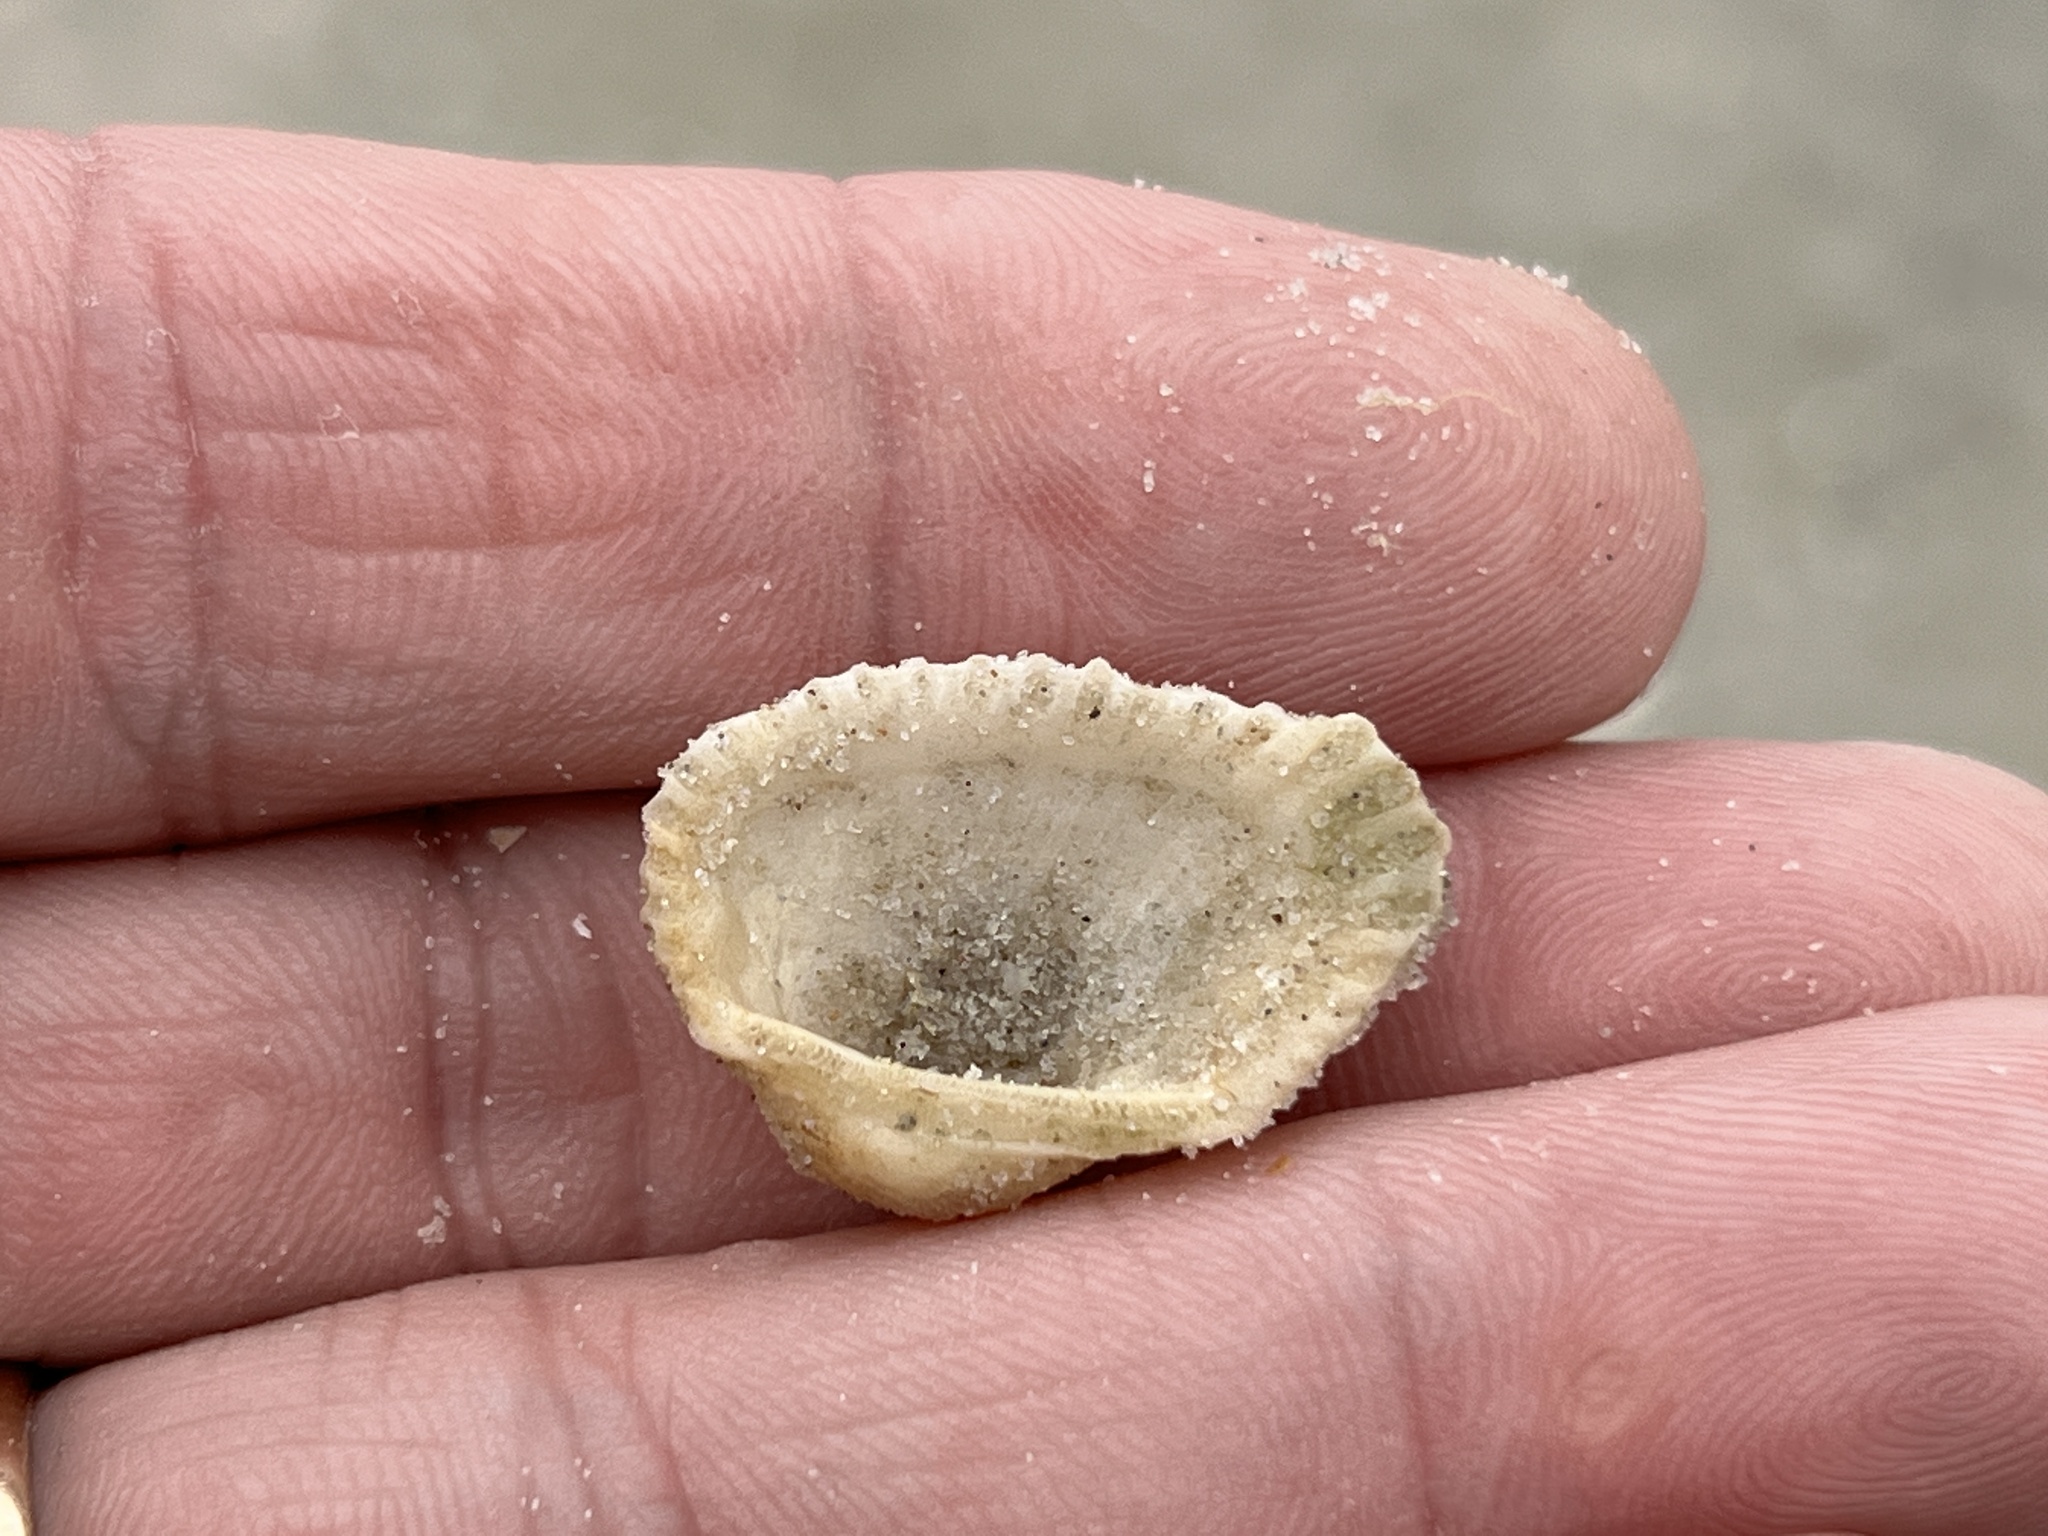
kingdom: Animalia
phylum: Mollusca
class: Bivalvia
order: Arcida
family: Arcidae
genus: Anadara
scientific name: Anadara transversa
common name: Transverse ark
